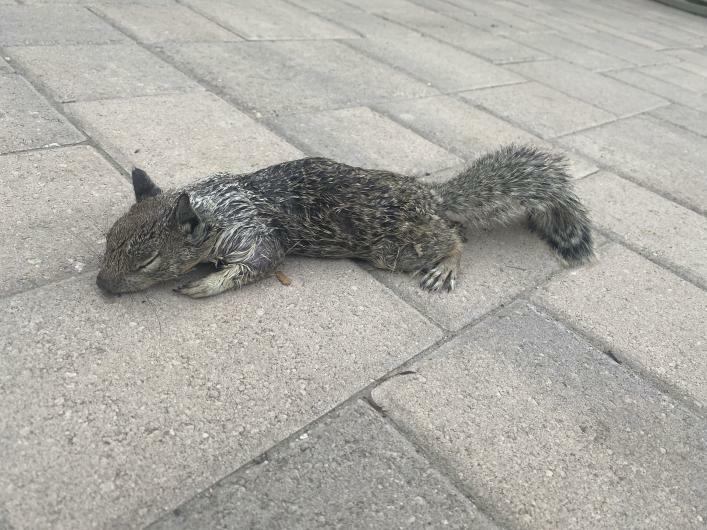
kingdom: Animalia
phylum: Chordata
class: Mammalia
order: Rodentia
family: Sciuridae
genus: Sciurus
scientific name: Sciurus griseus
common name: Western gray squirrel
